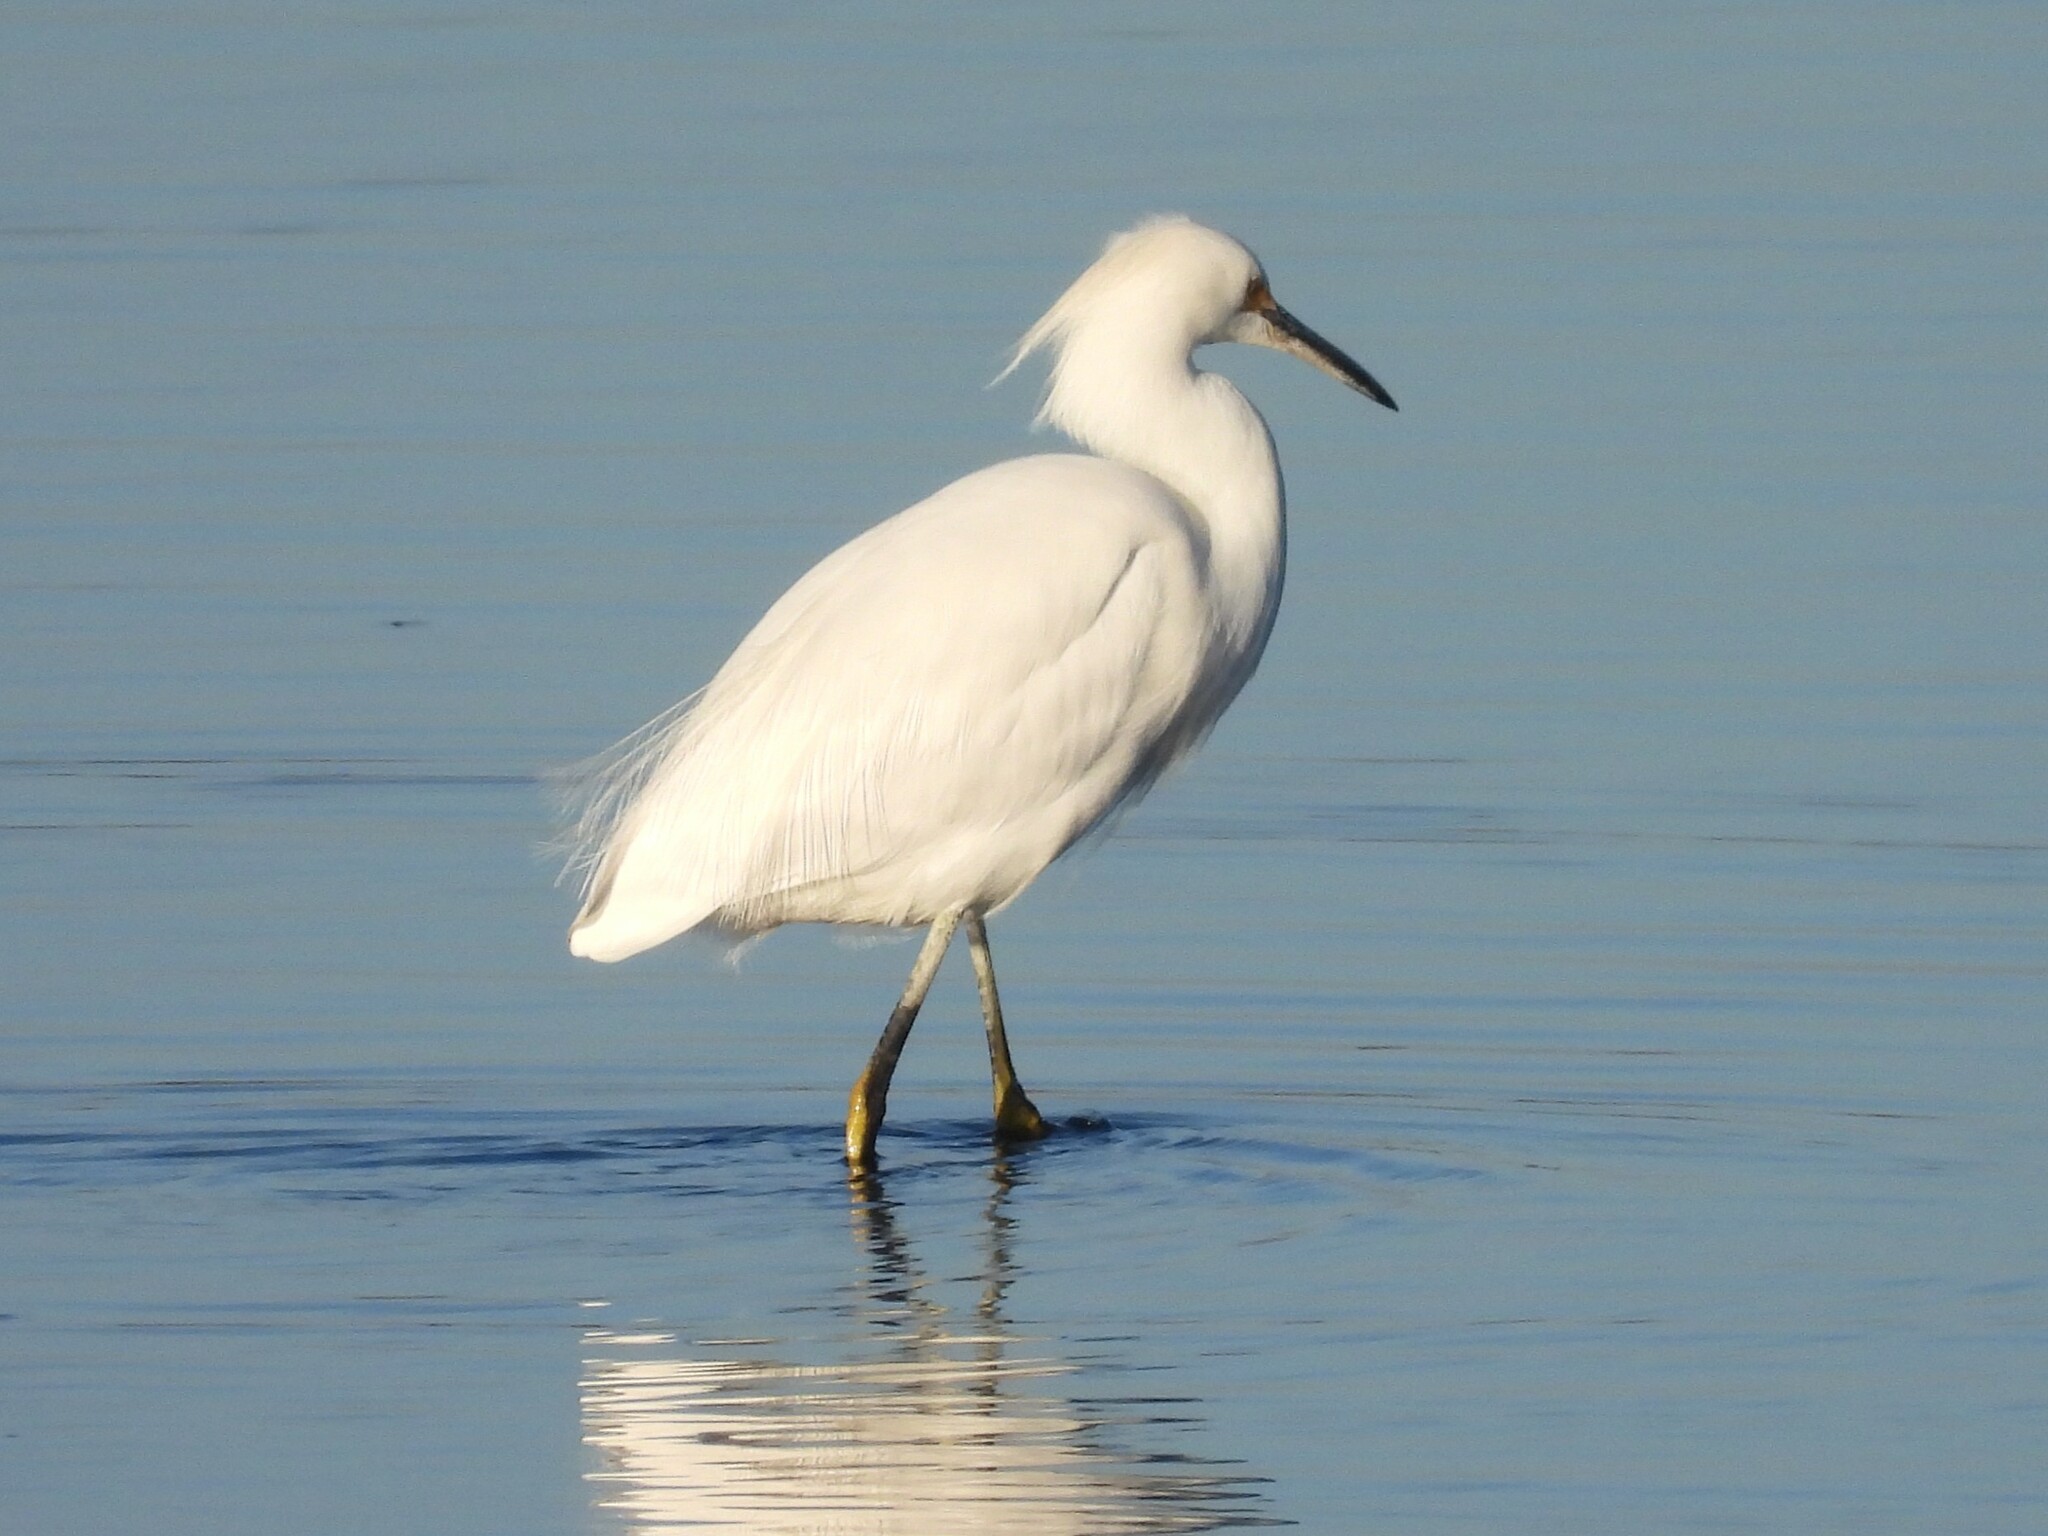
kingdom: Animalia
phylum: Chordata
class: Aves
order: Pelecaniformes
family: Ardeidae
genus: Egretta
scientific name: Egretta thula
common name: Snowy egret
